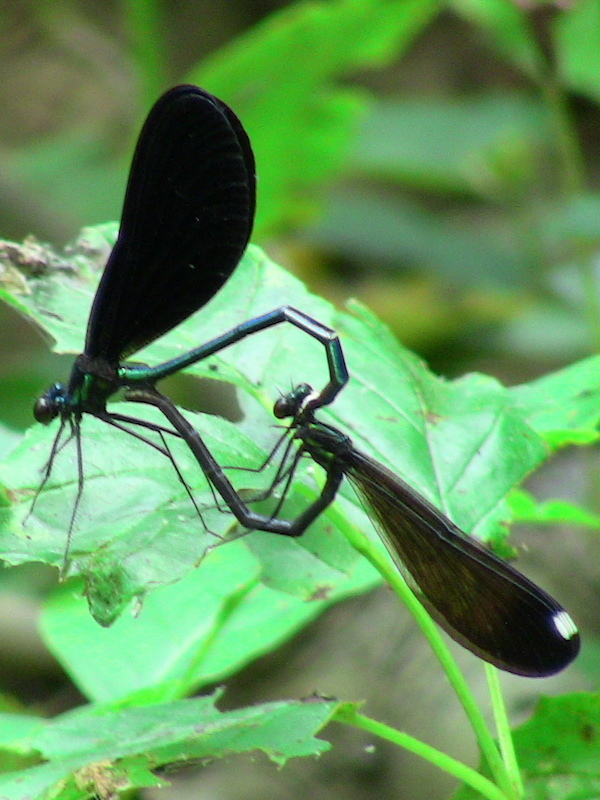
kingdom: Animalia
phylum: Arthropoda
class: Insecta
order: Odonata
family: Calopterygidae
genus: Calopteryx
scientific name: Calopteryx maculata
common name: Ebony jewelwing
